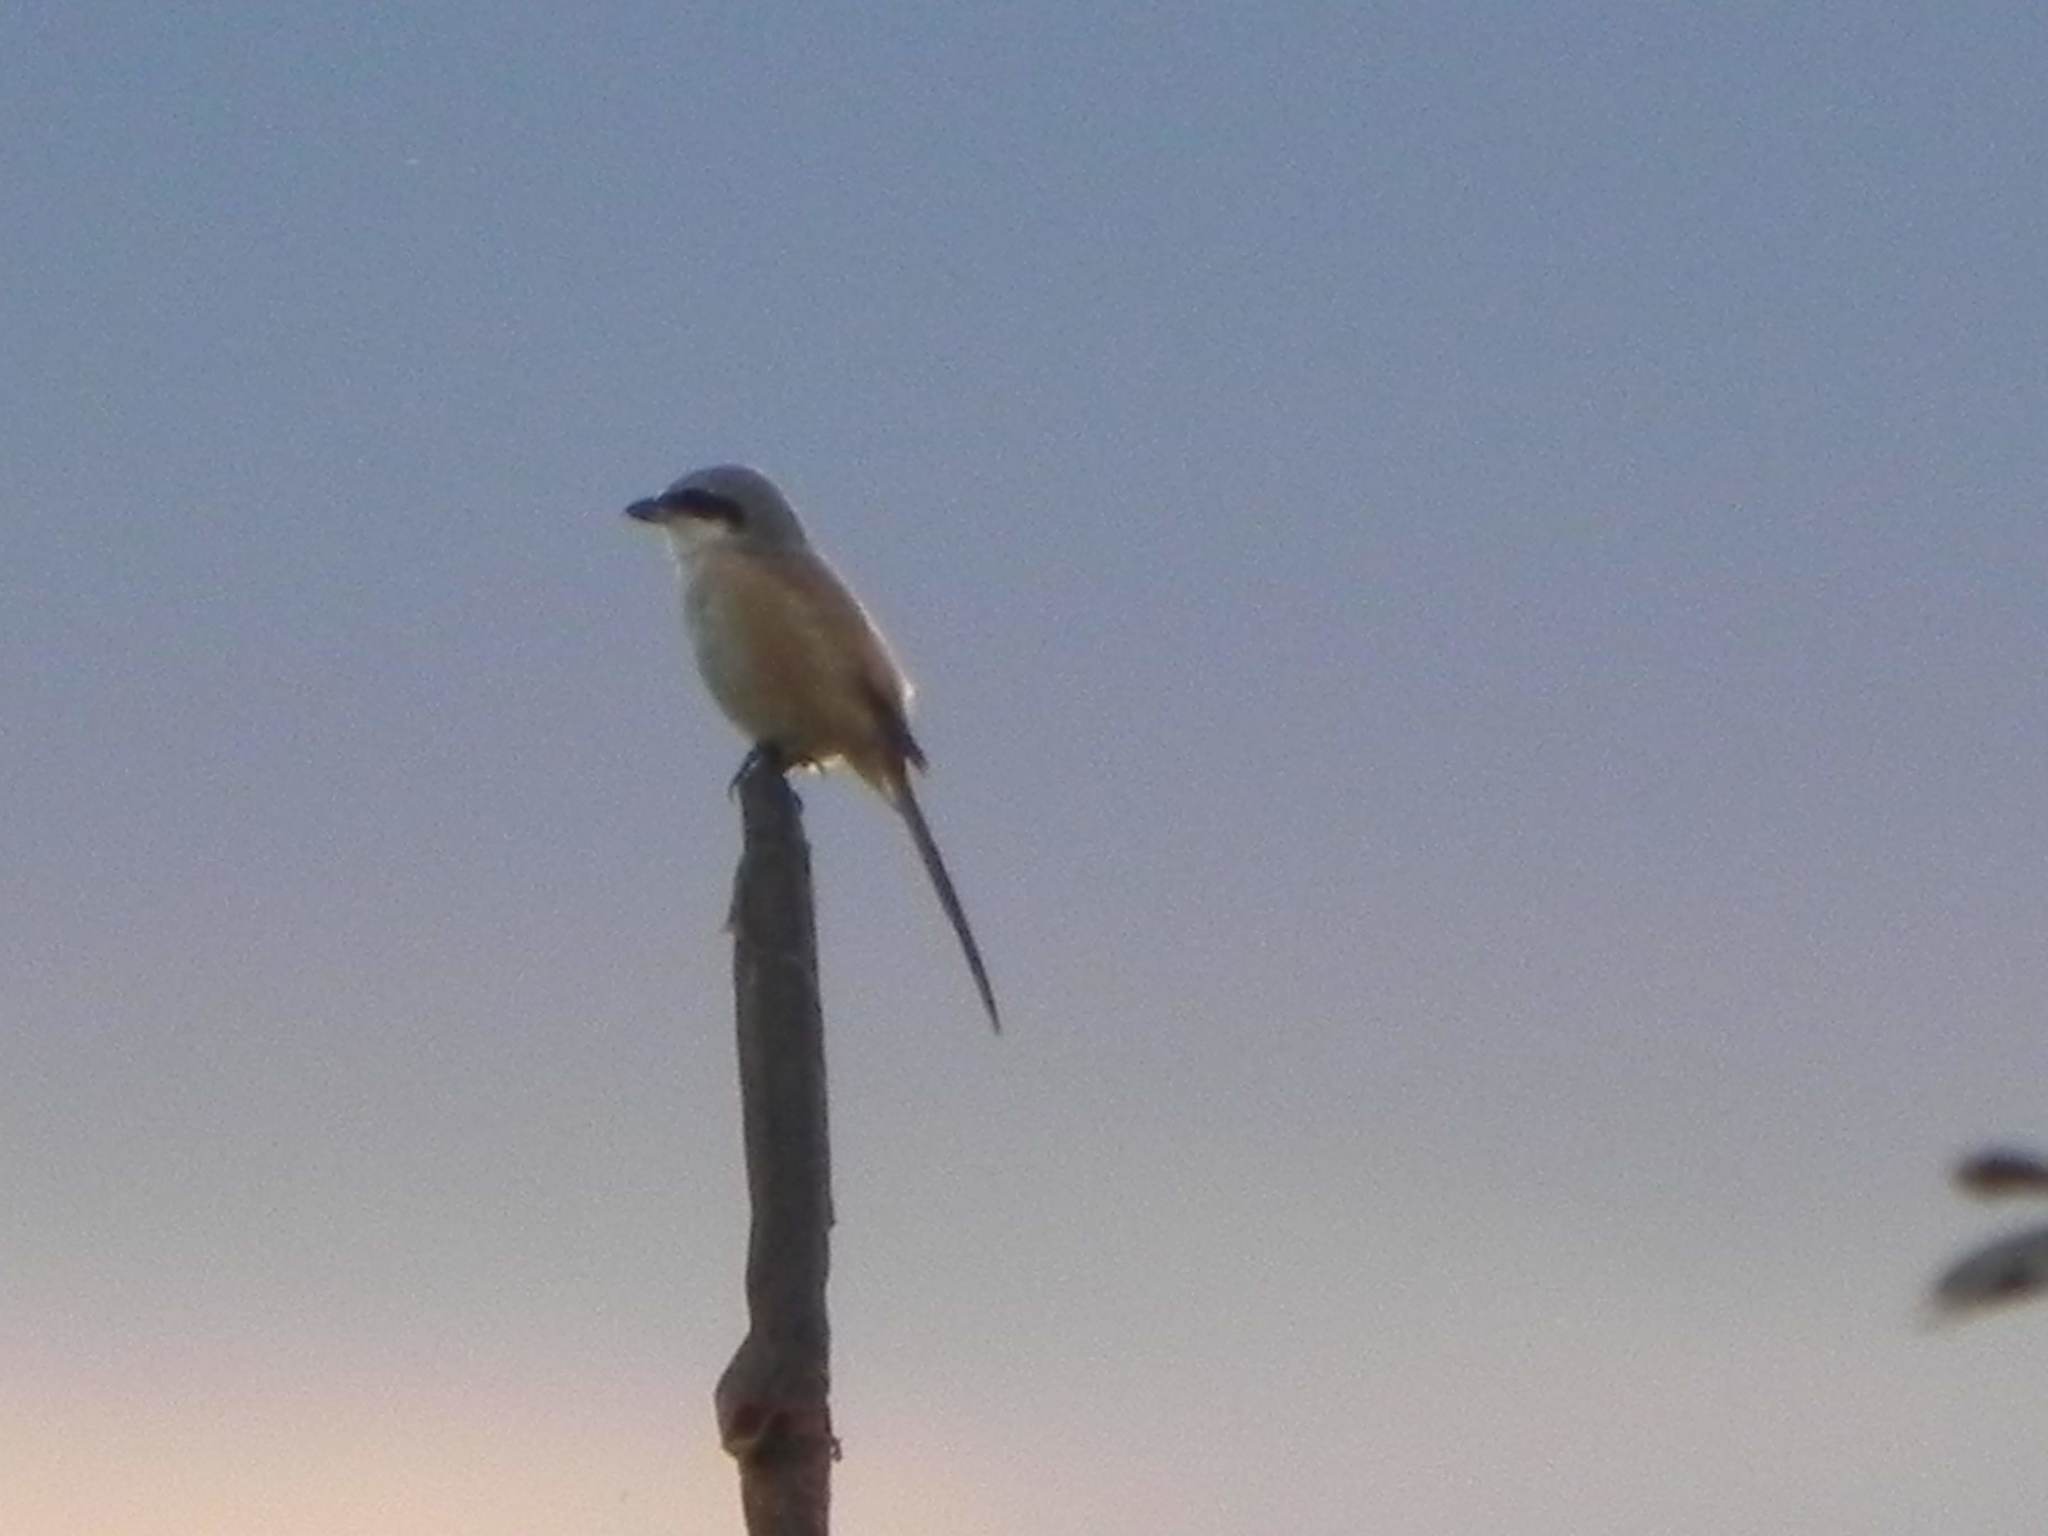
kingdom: Animalia
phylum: Chordata
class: Aves
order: Passeriformes
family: Laniidae
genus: Lanius
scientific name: Lanius schach
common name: Long-tailed shrike
